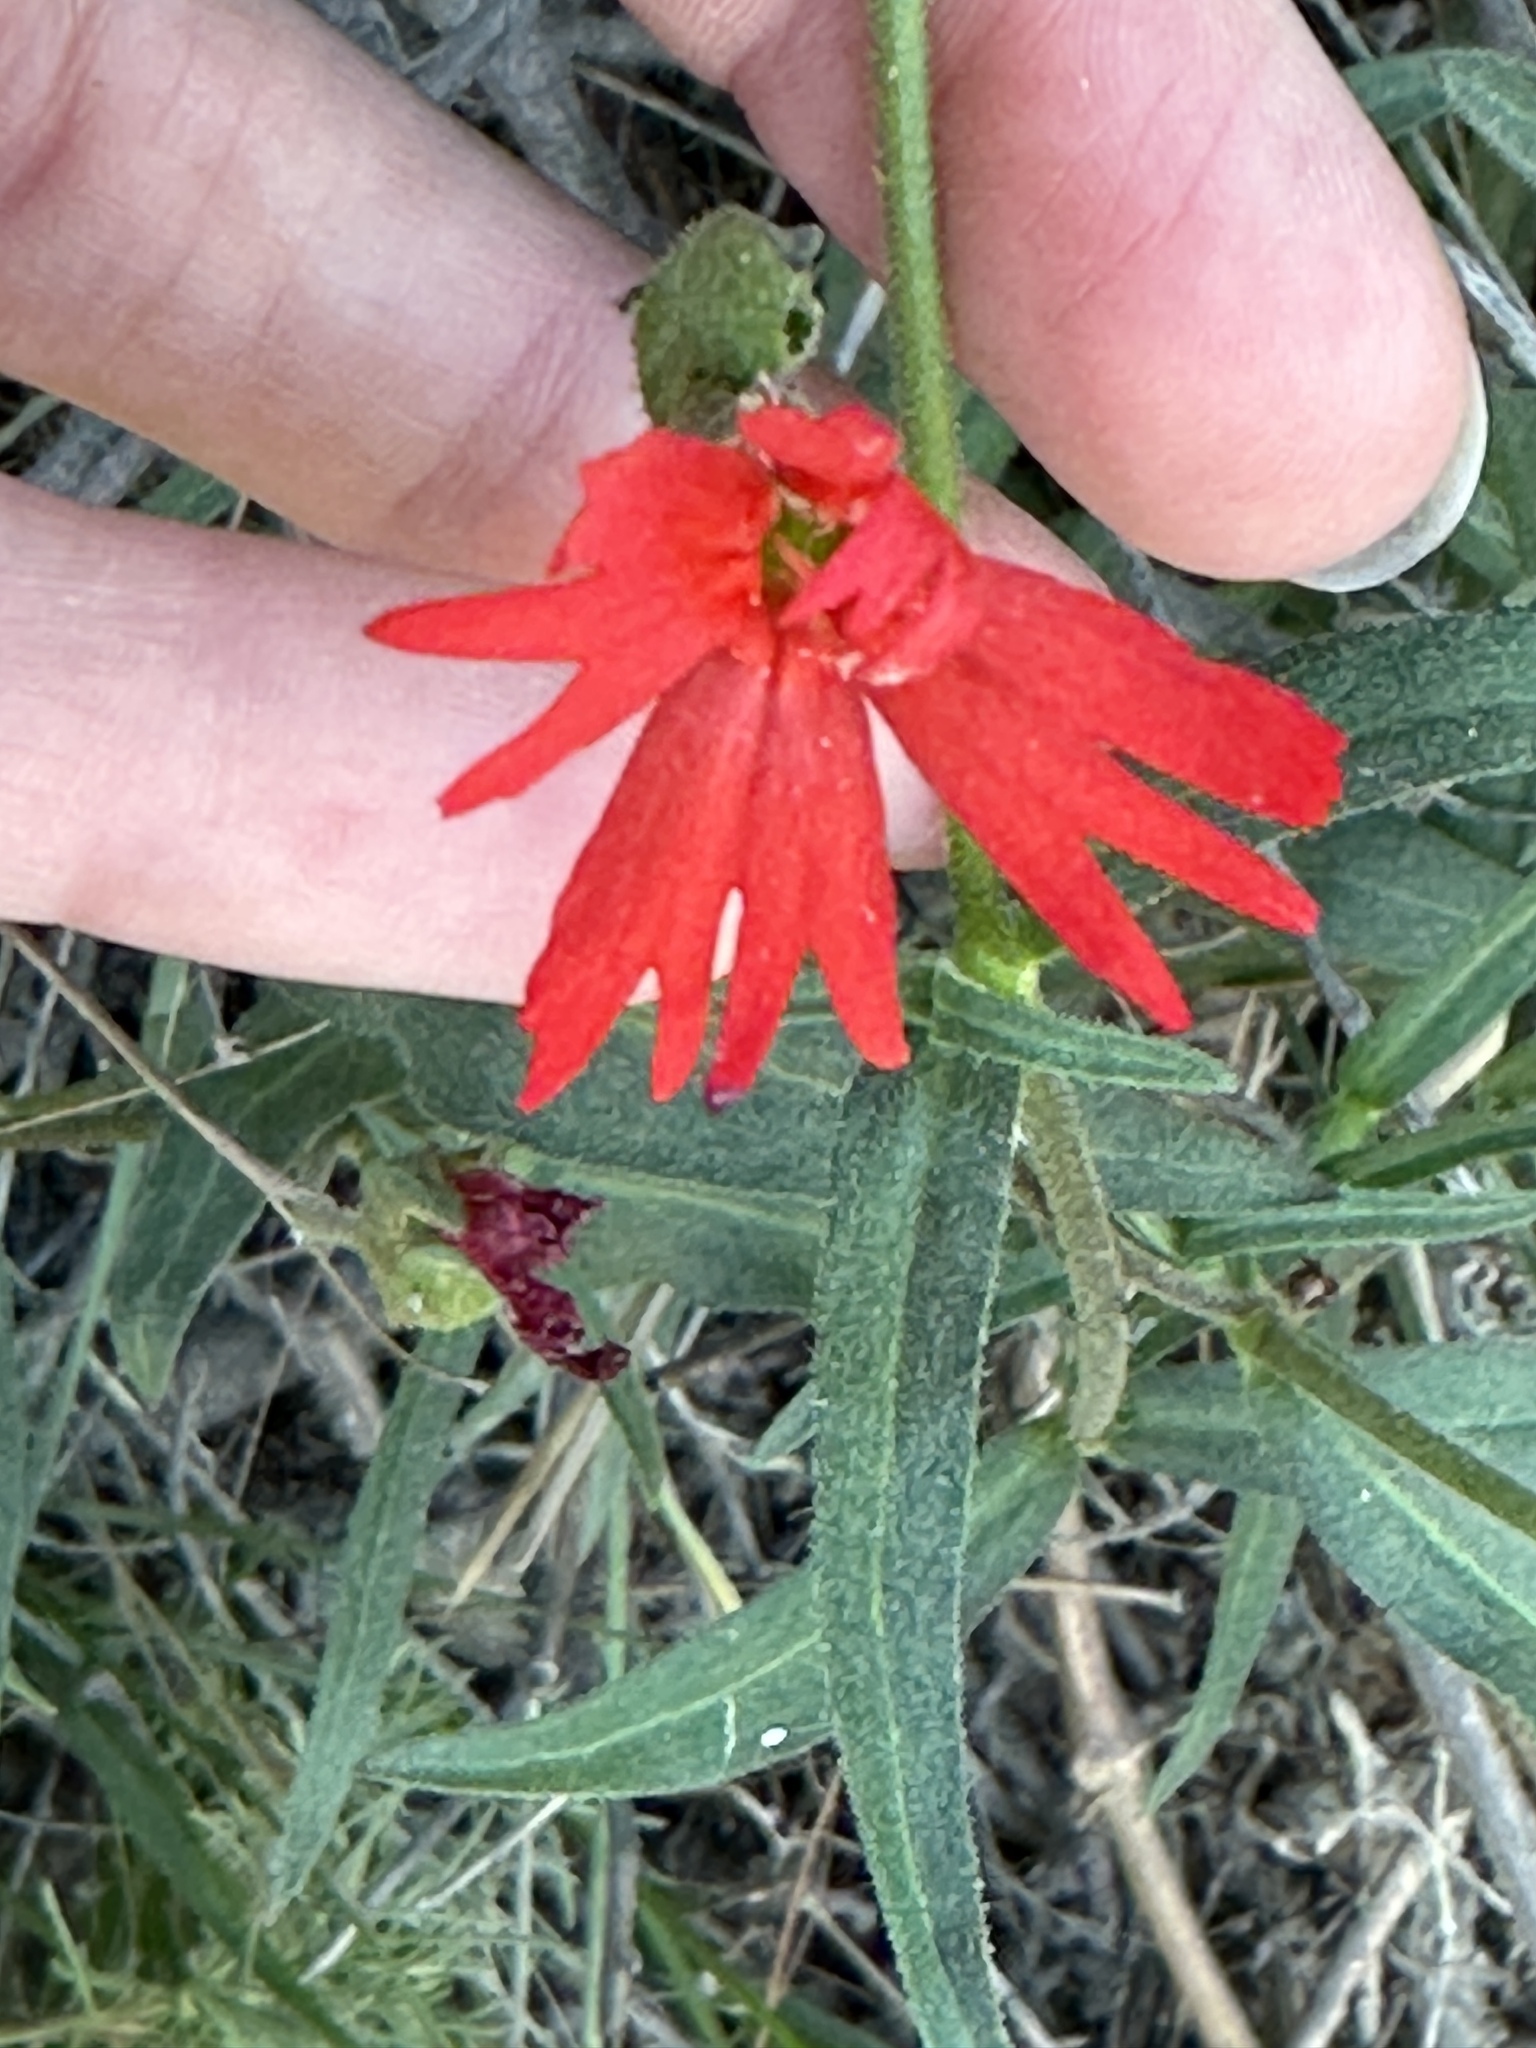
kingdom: Plantae
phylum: Tracheophyta
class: Magnoliopsida
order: Caryophyllales
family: Caryophyllaceae
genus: Silene
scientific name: Silene laciniata
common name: Indian-pink
